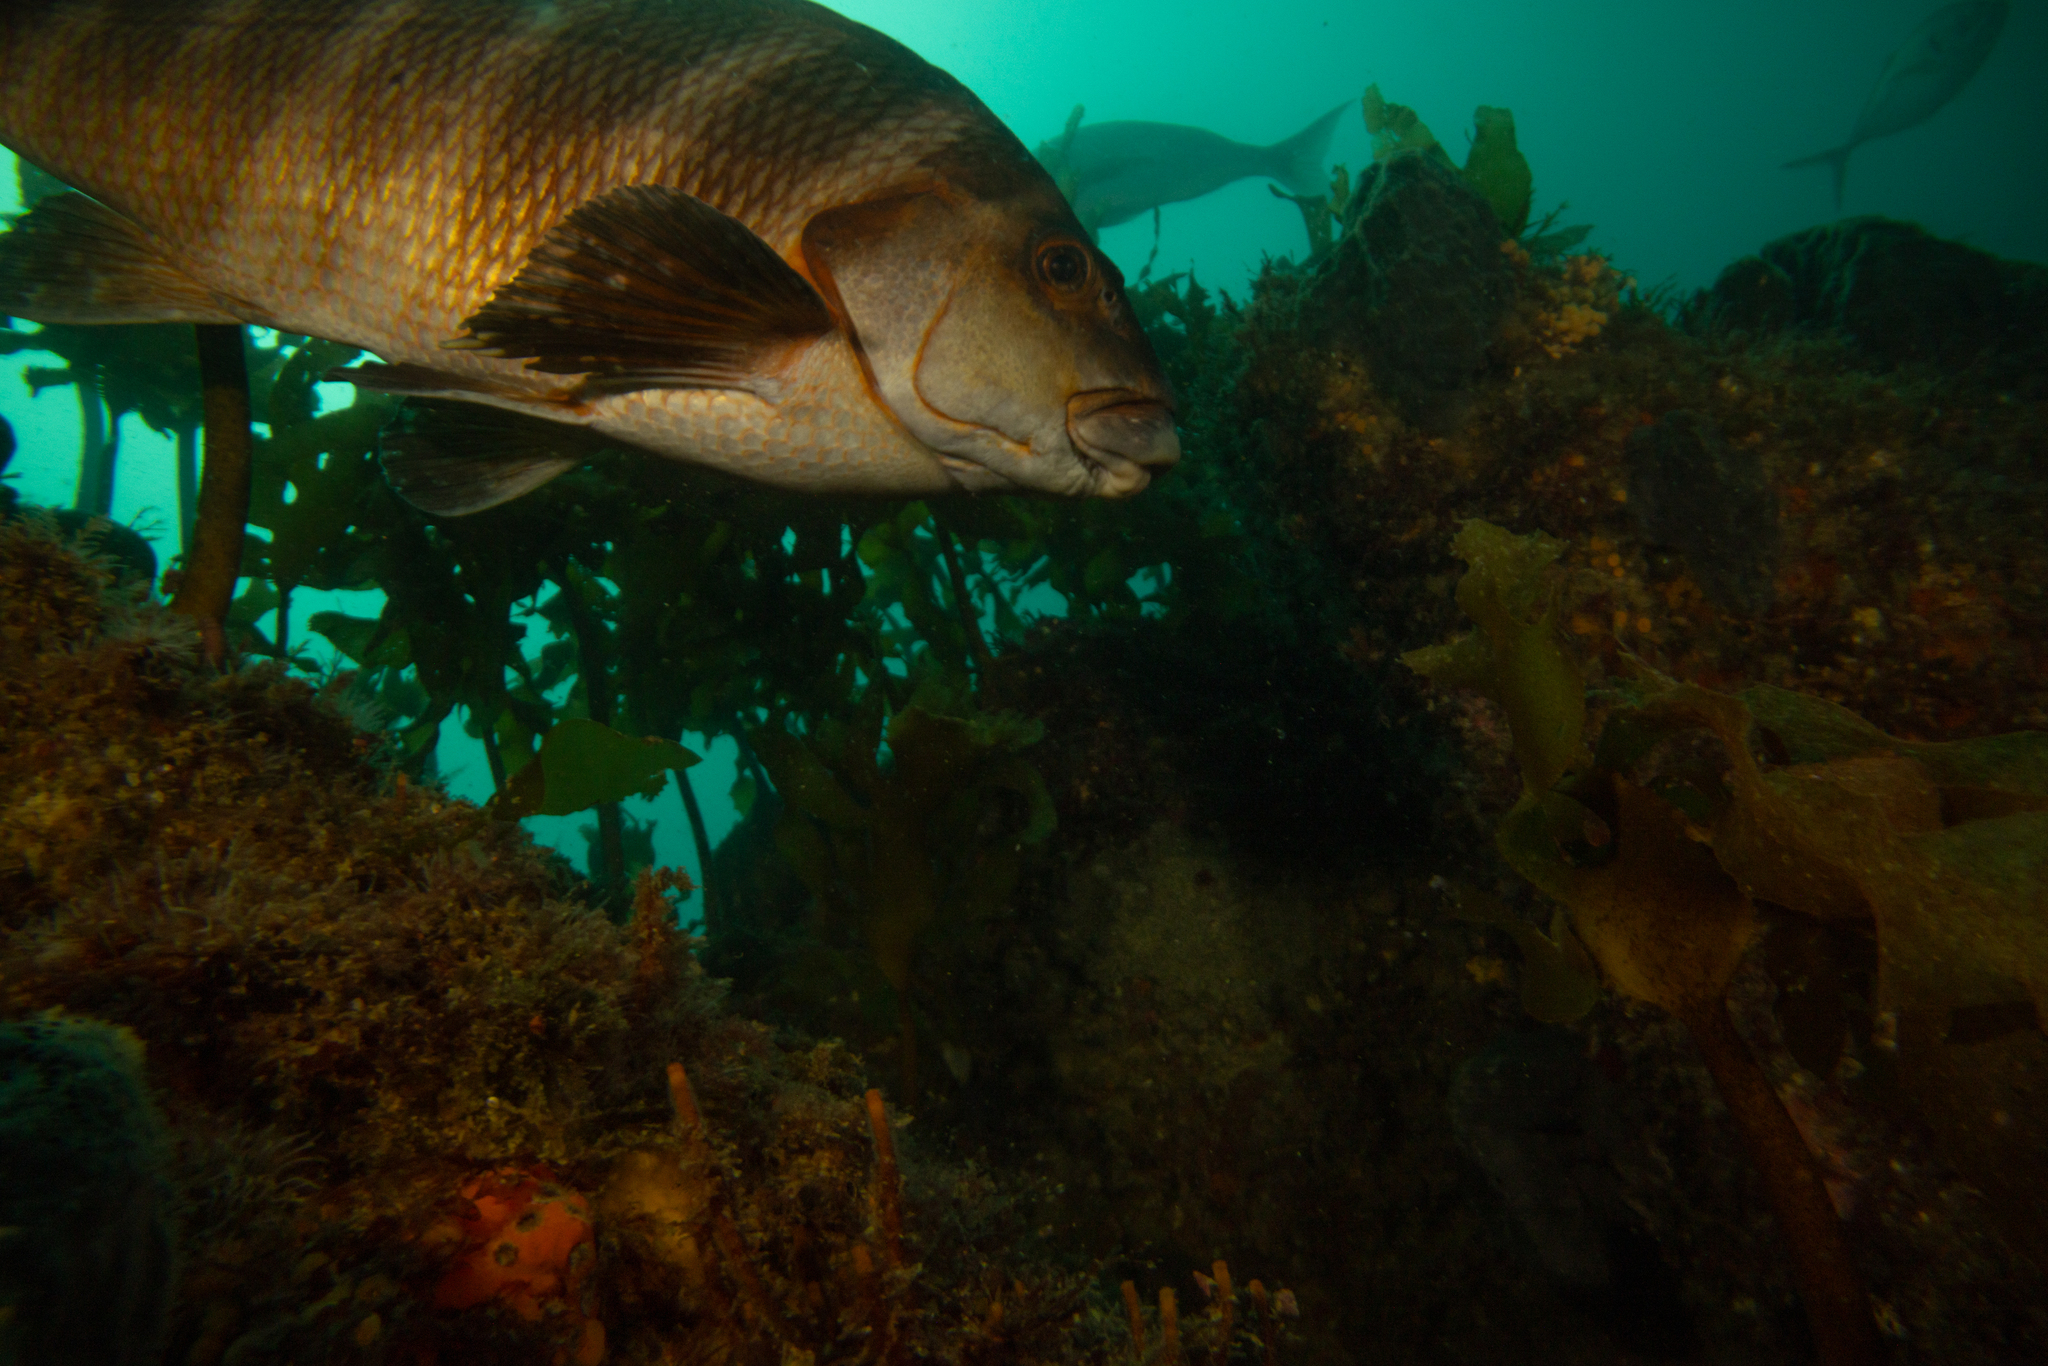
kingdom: Animalia
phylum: Chordata
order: Perciformes
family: Cheilodactylidae
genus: Cheilodactylus
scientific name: Cheilodactylus spectabilis
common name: Red moki
